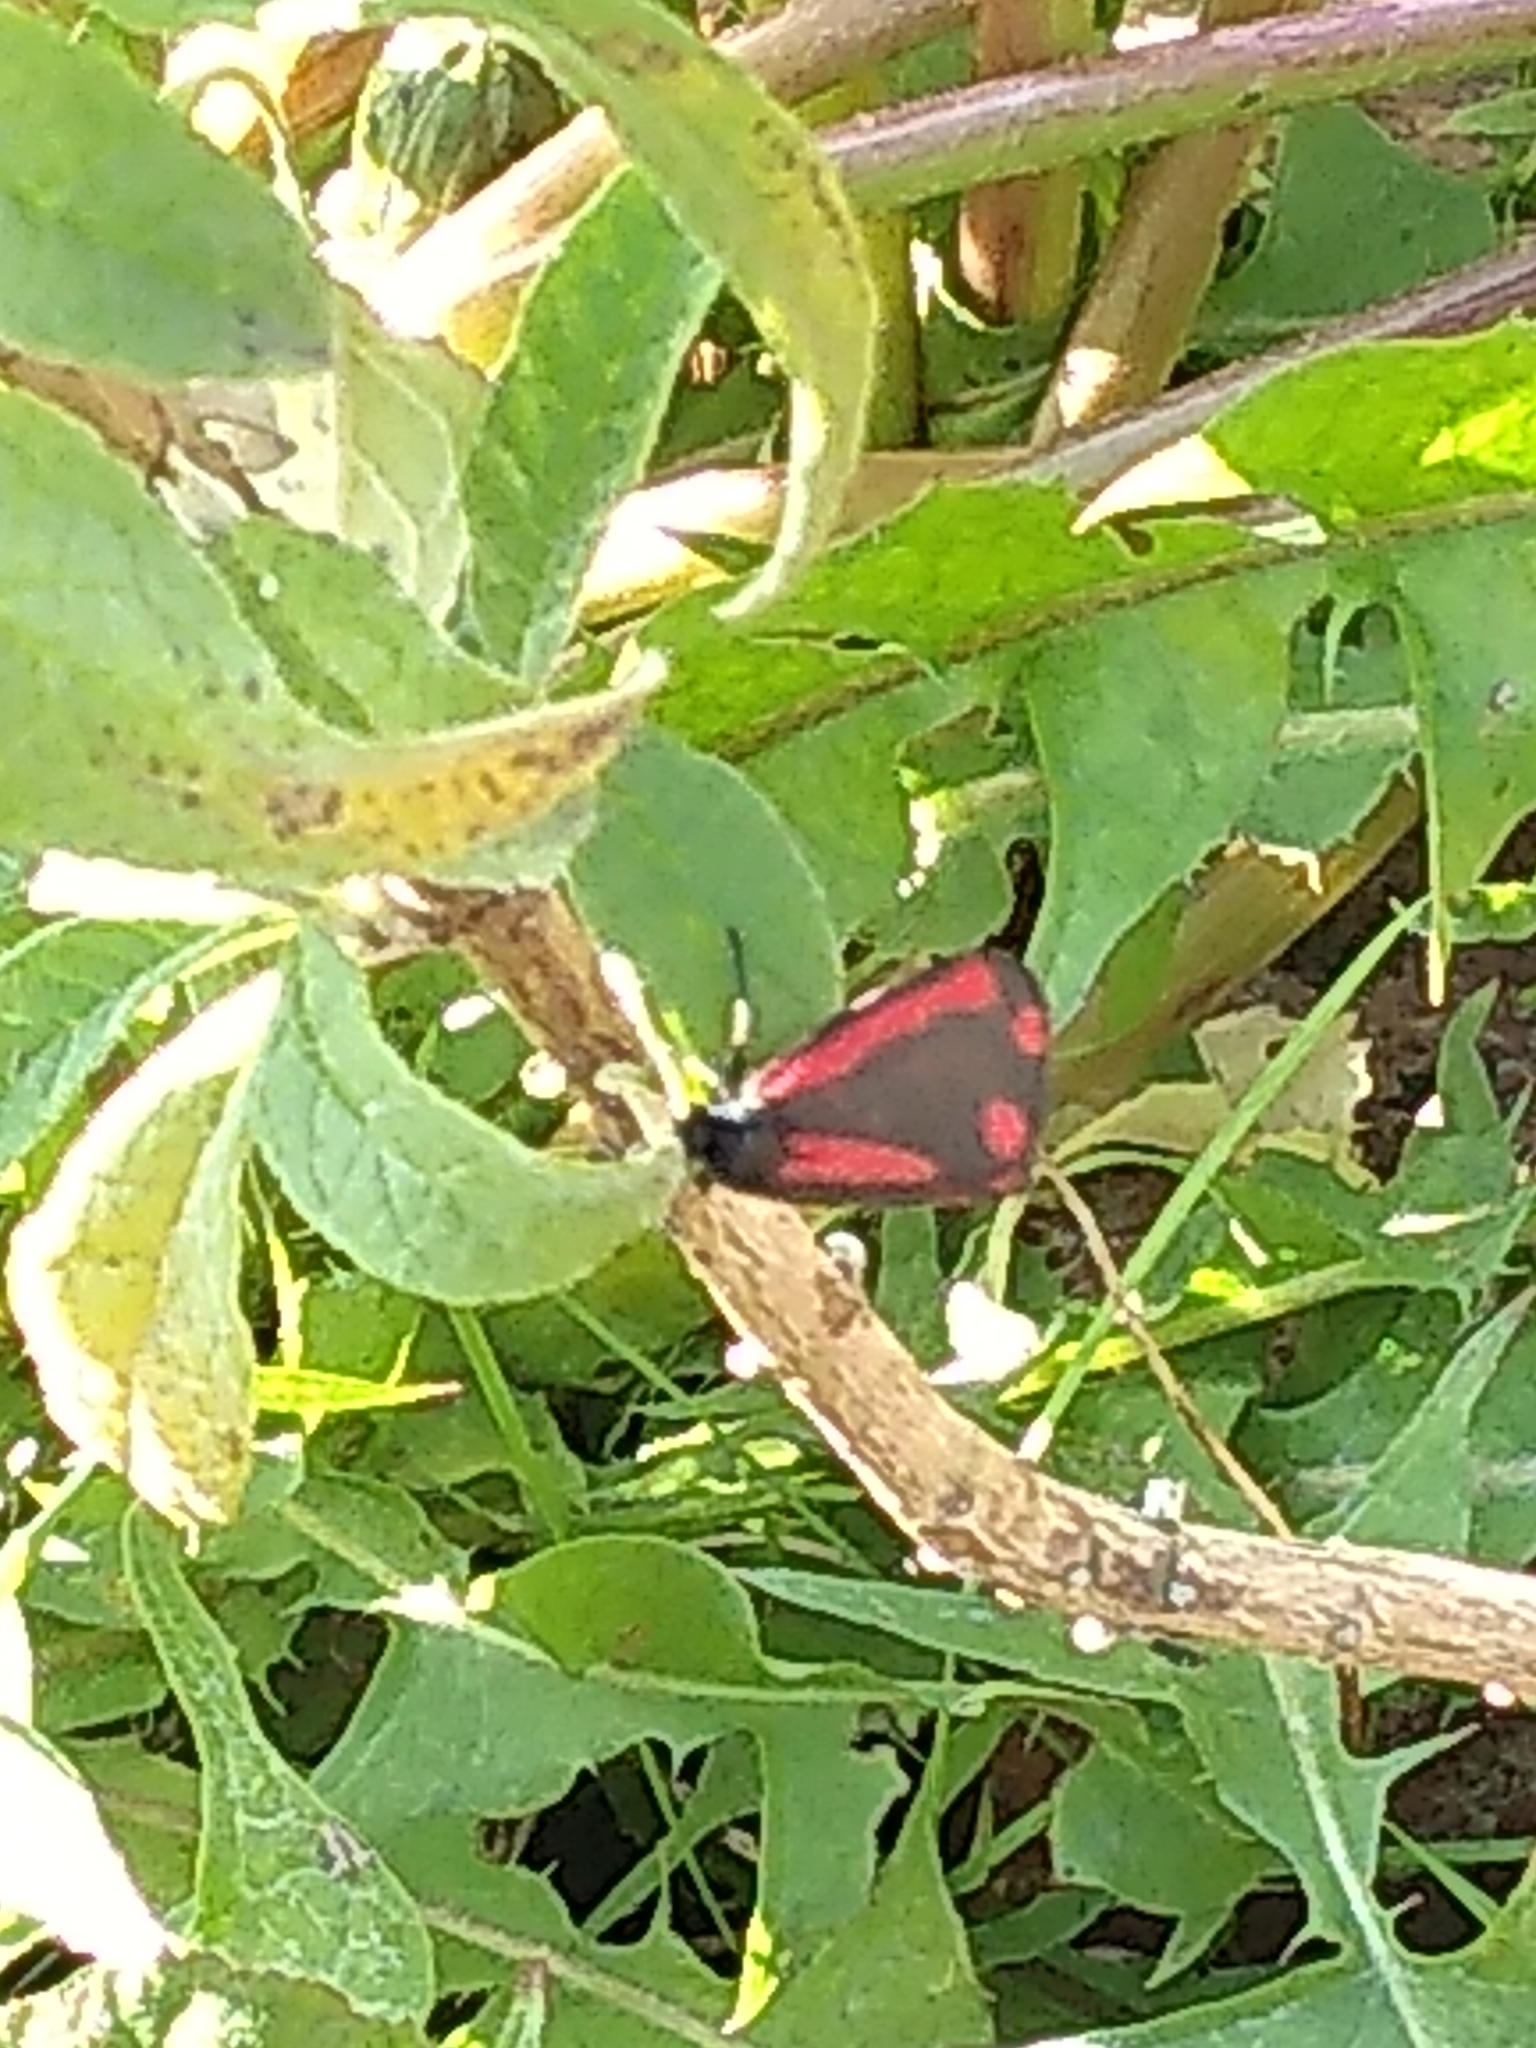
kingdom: Animalia
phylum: Arthropoda
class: Insecta
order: Lepidoptera
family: Erebidae
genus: Tyria
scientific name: Tyria jacobaeae
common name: Cinnabar
